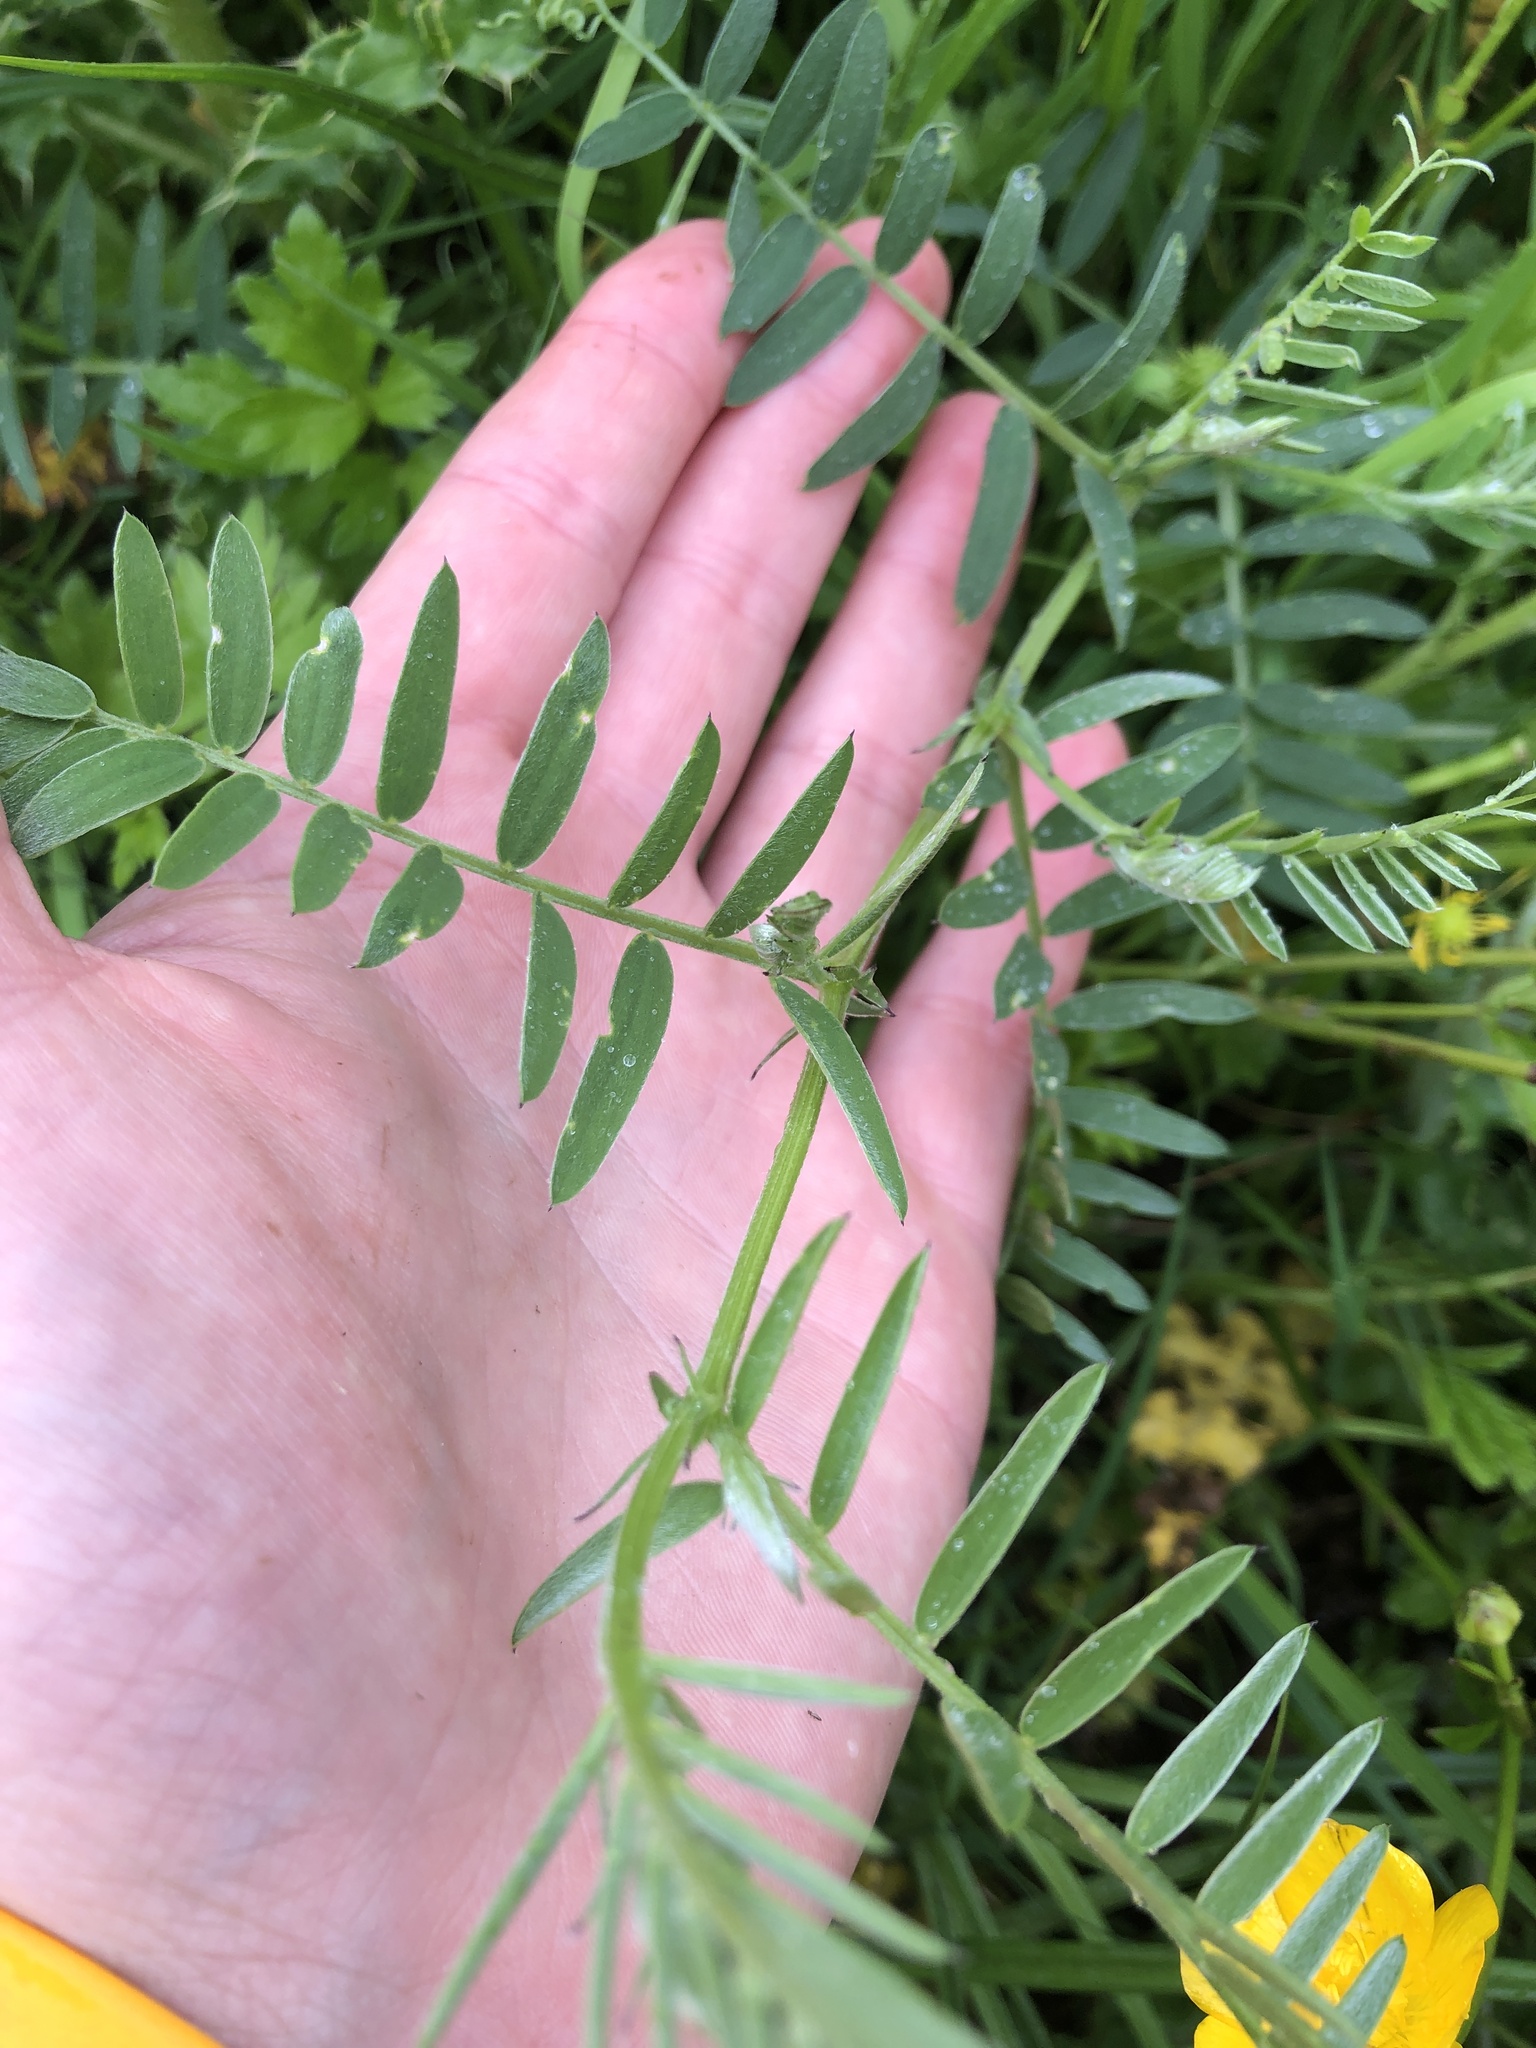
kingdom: Plantae
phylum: Tracheophyta
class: Magnoliopsida
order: Fabales
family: Fabaceae
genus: Vicia
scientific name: Vicia cracca
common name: Bird vetch
